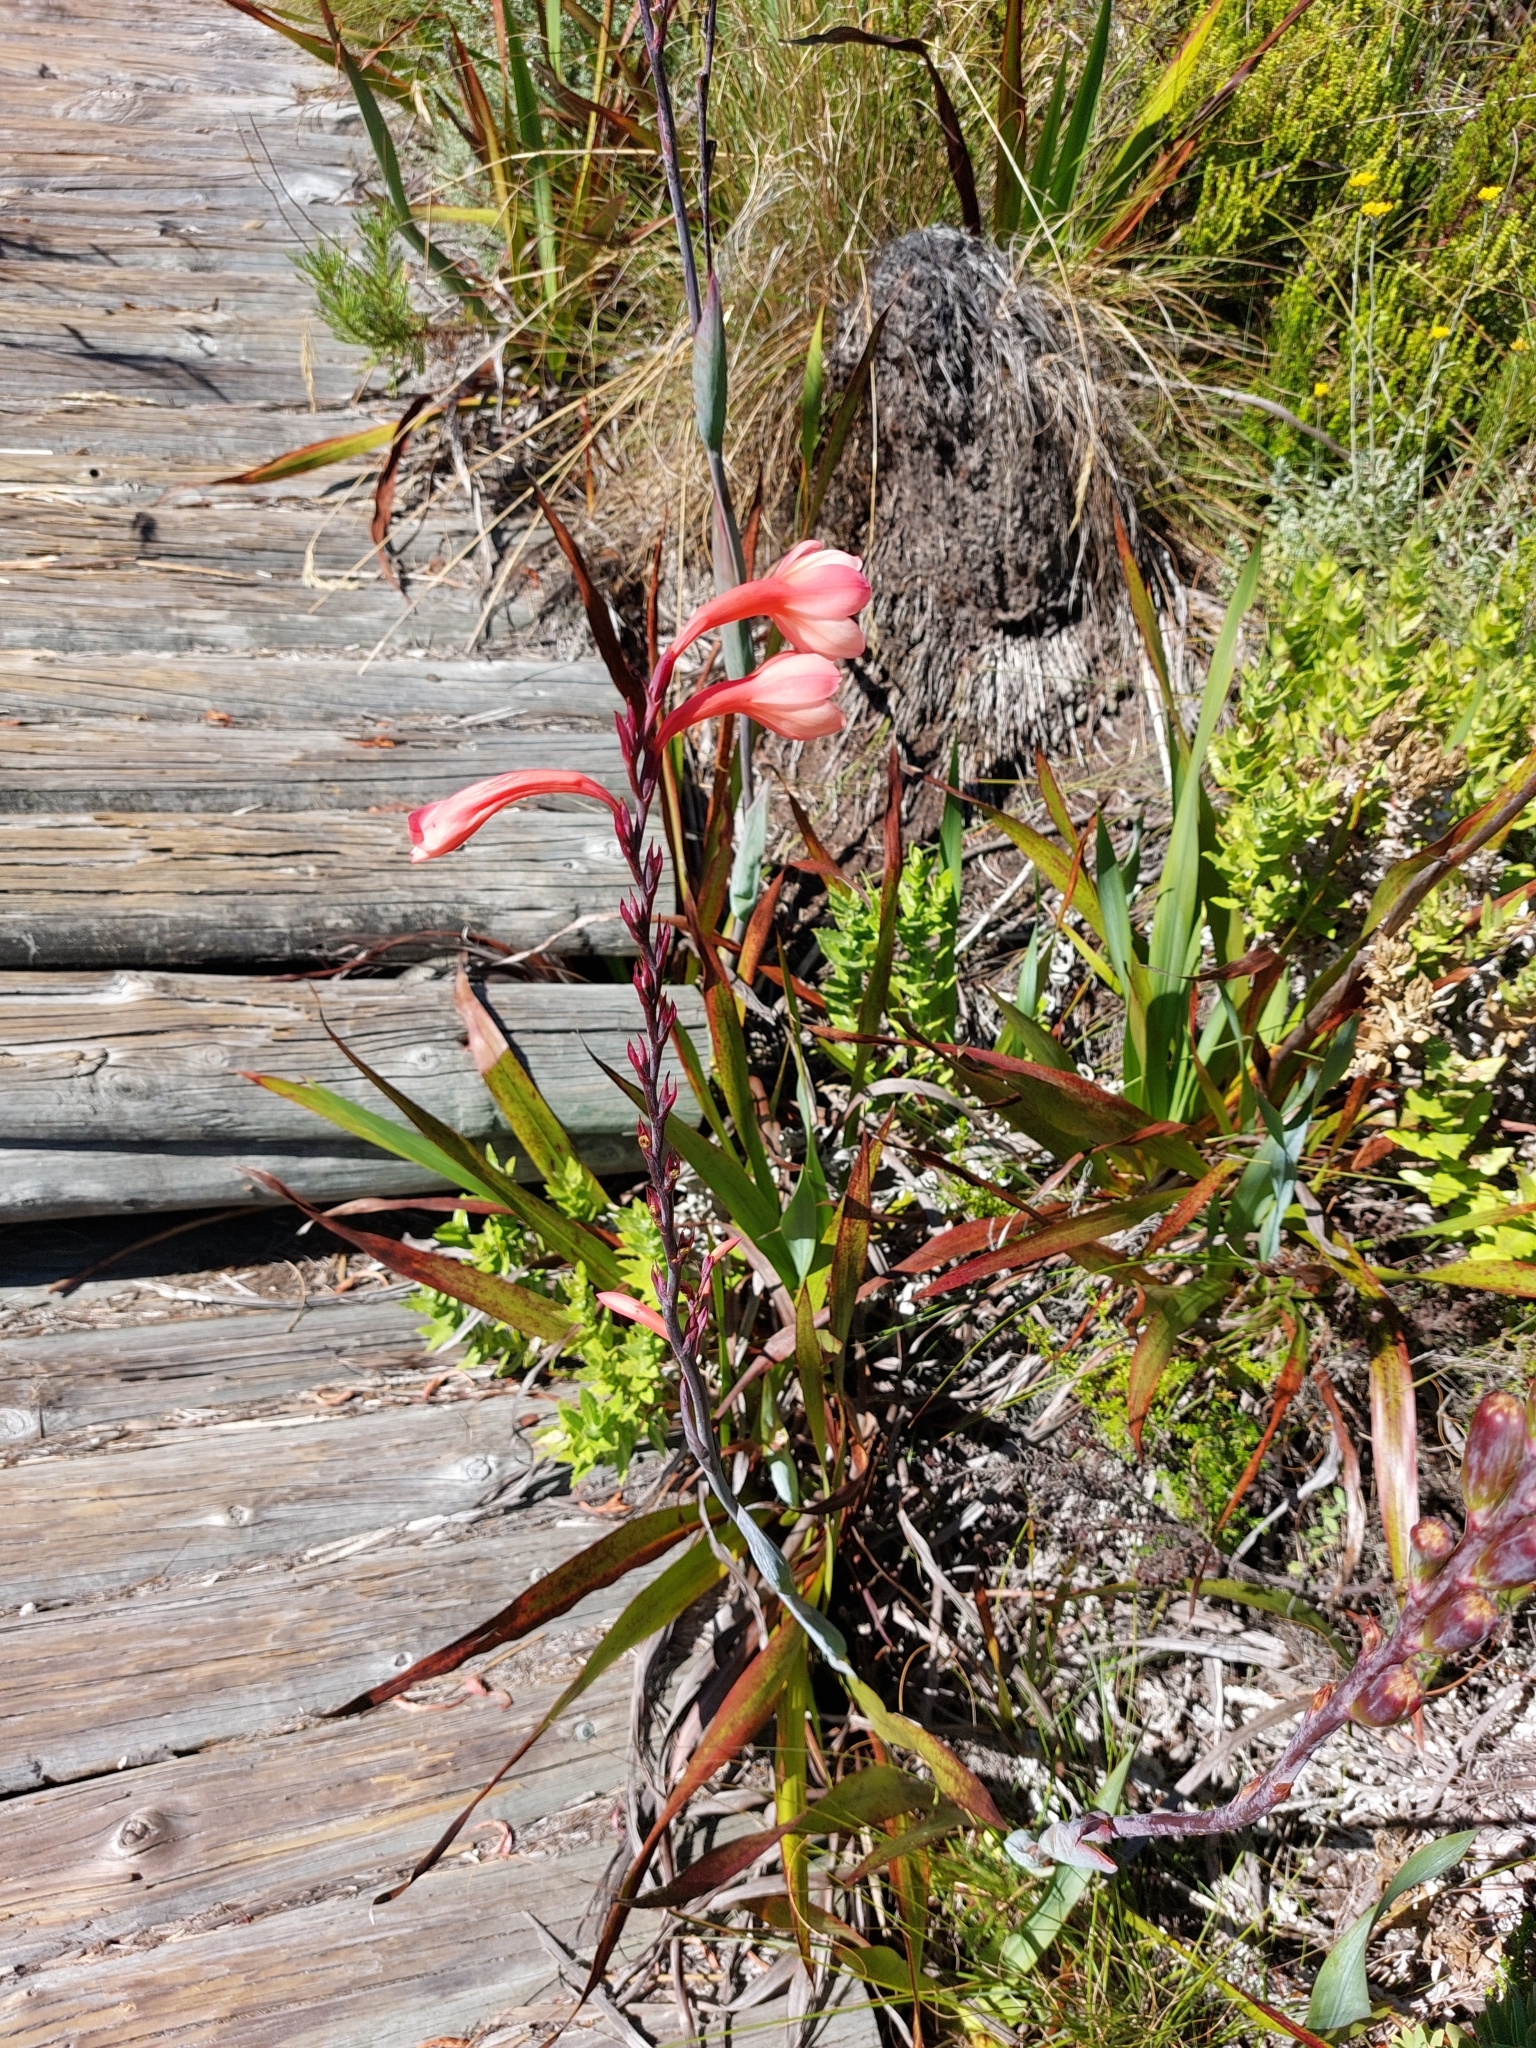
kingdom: Plantae
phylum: Tracheophyta
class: Liliopsida
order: Asparagales
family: Iridaceae
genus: Watsonia
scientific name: Watsonia tabularis
